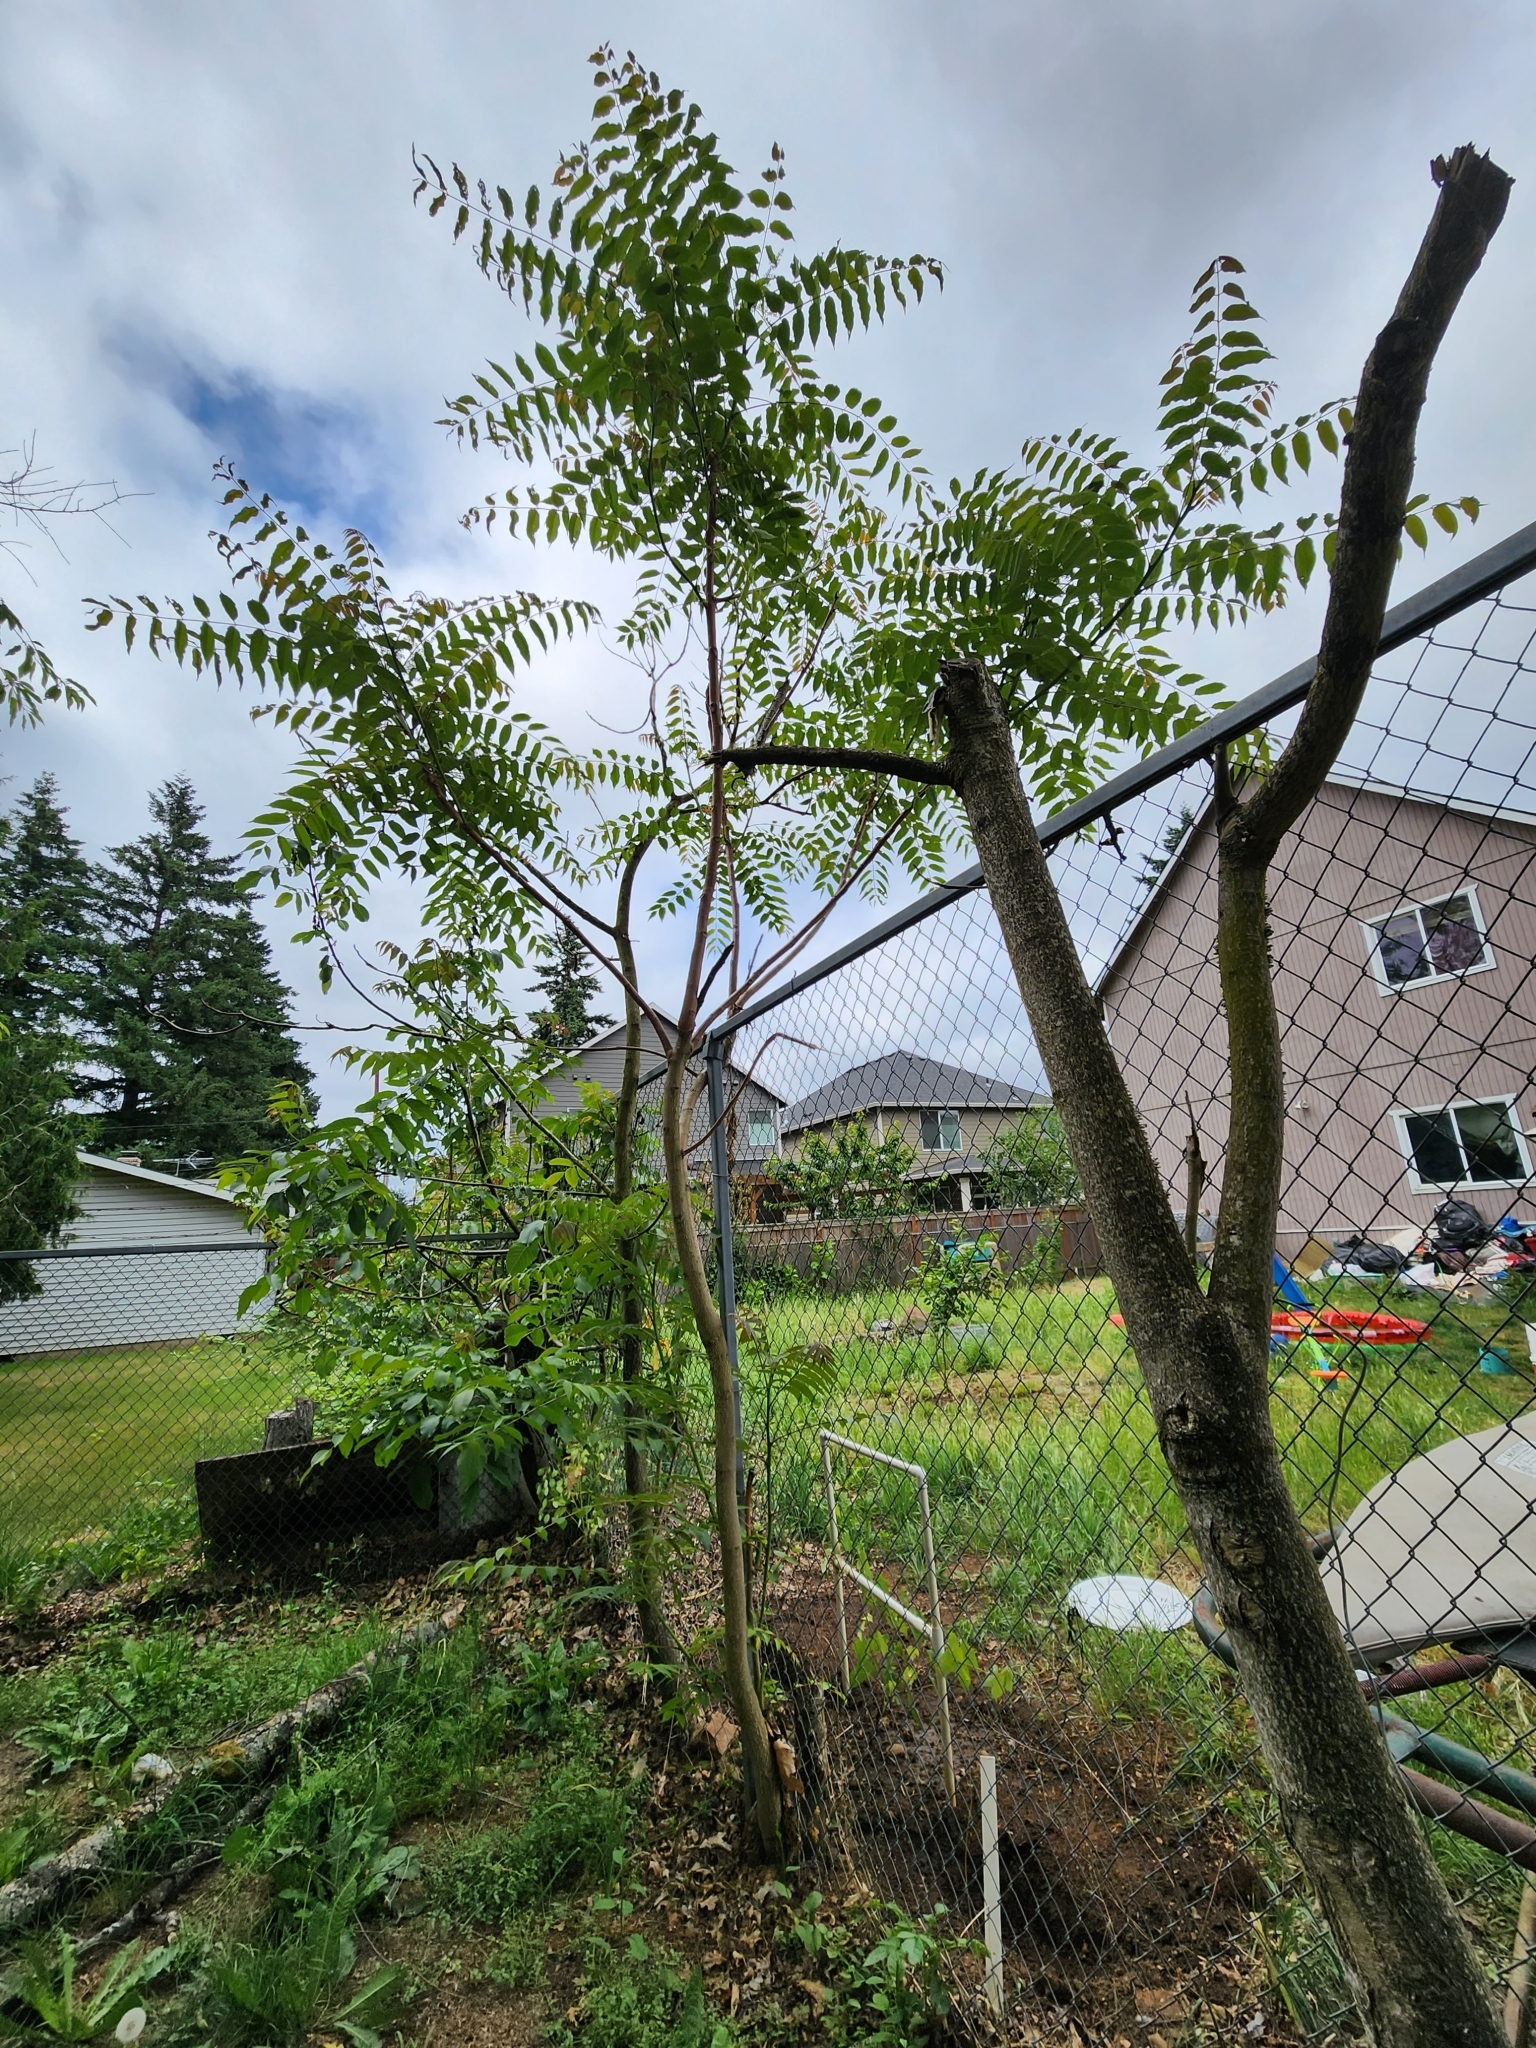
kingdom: Plantae
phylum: Tracheophyta
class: Magnoliopsida
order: Sapindales
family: Simaroubaceae
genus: Ailanthus
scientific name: Ailanthus altissima
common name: Tree-of-heaven
